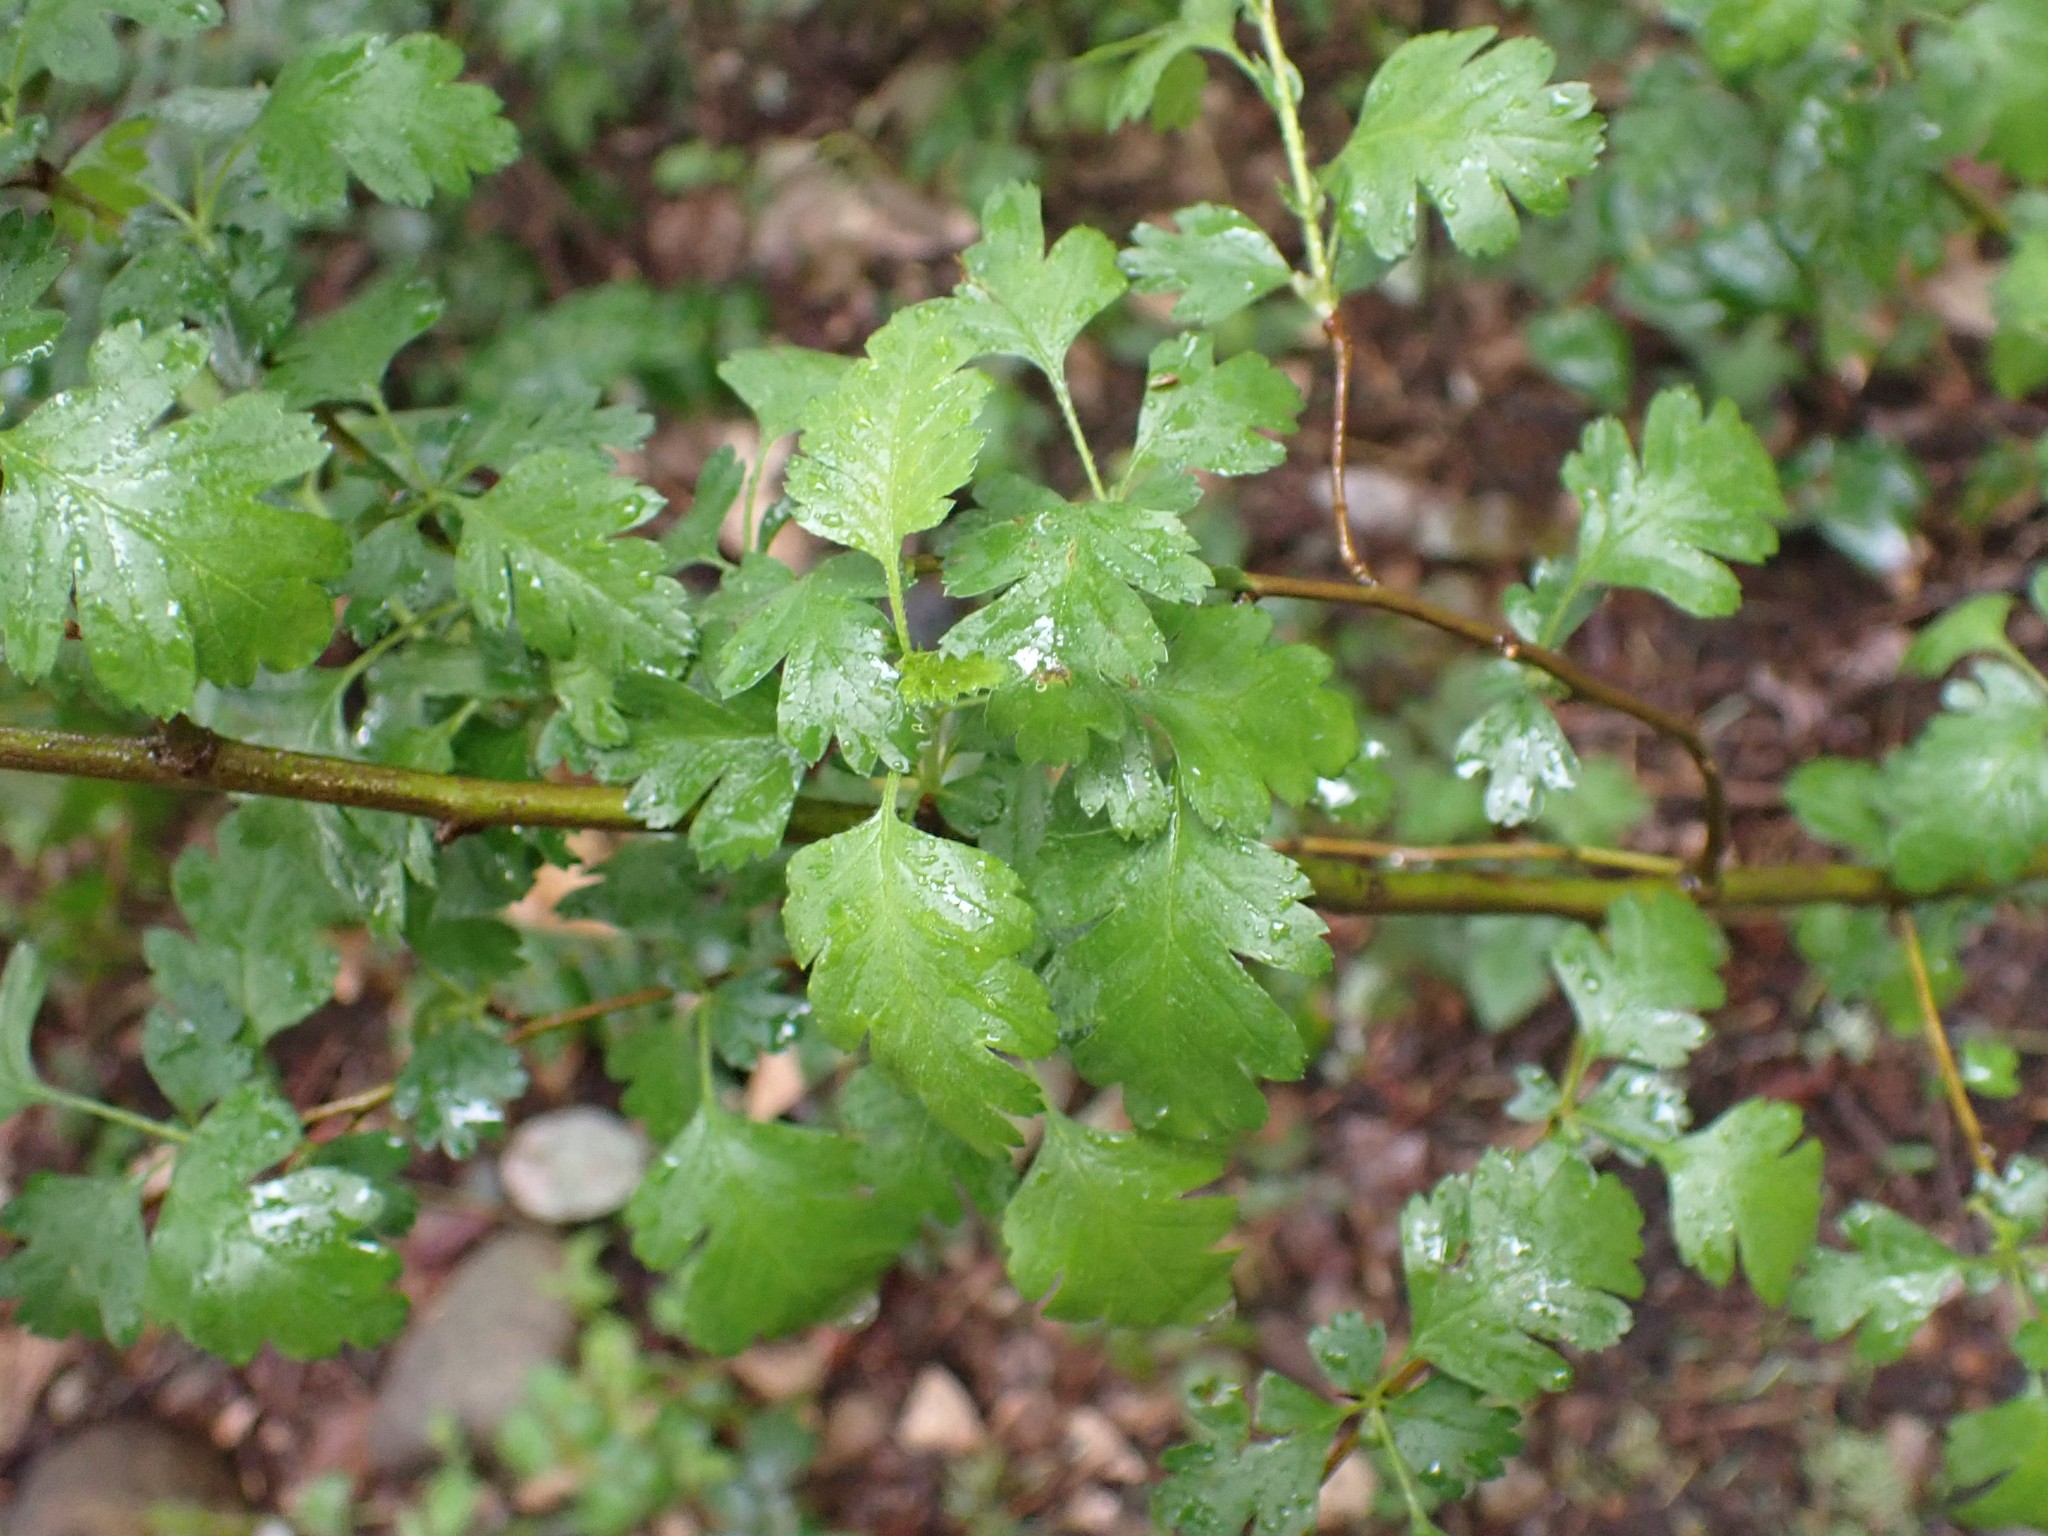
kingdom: Plantae
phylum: Tracheophyta
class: Magnoliopsida
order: Rosales
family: Rosaceae
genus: Crataegus
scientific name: Crataegus monogyna
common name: Hawthorn
